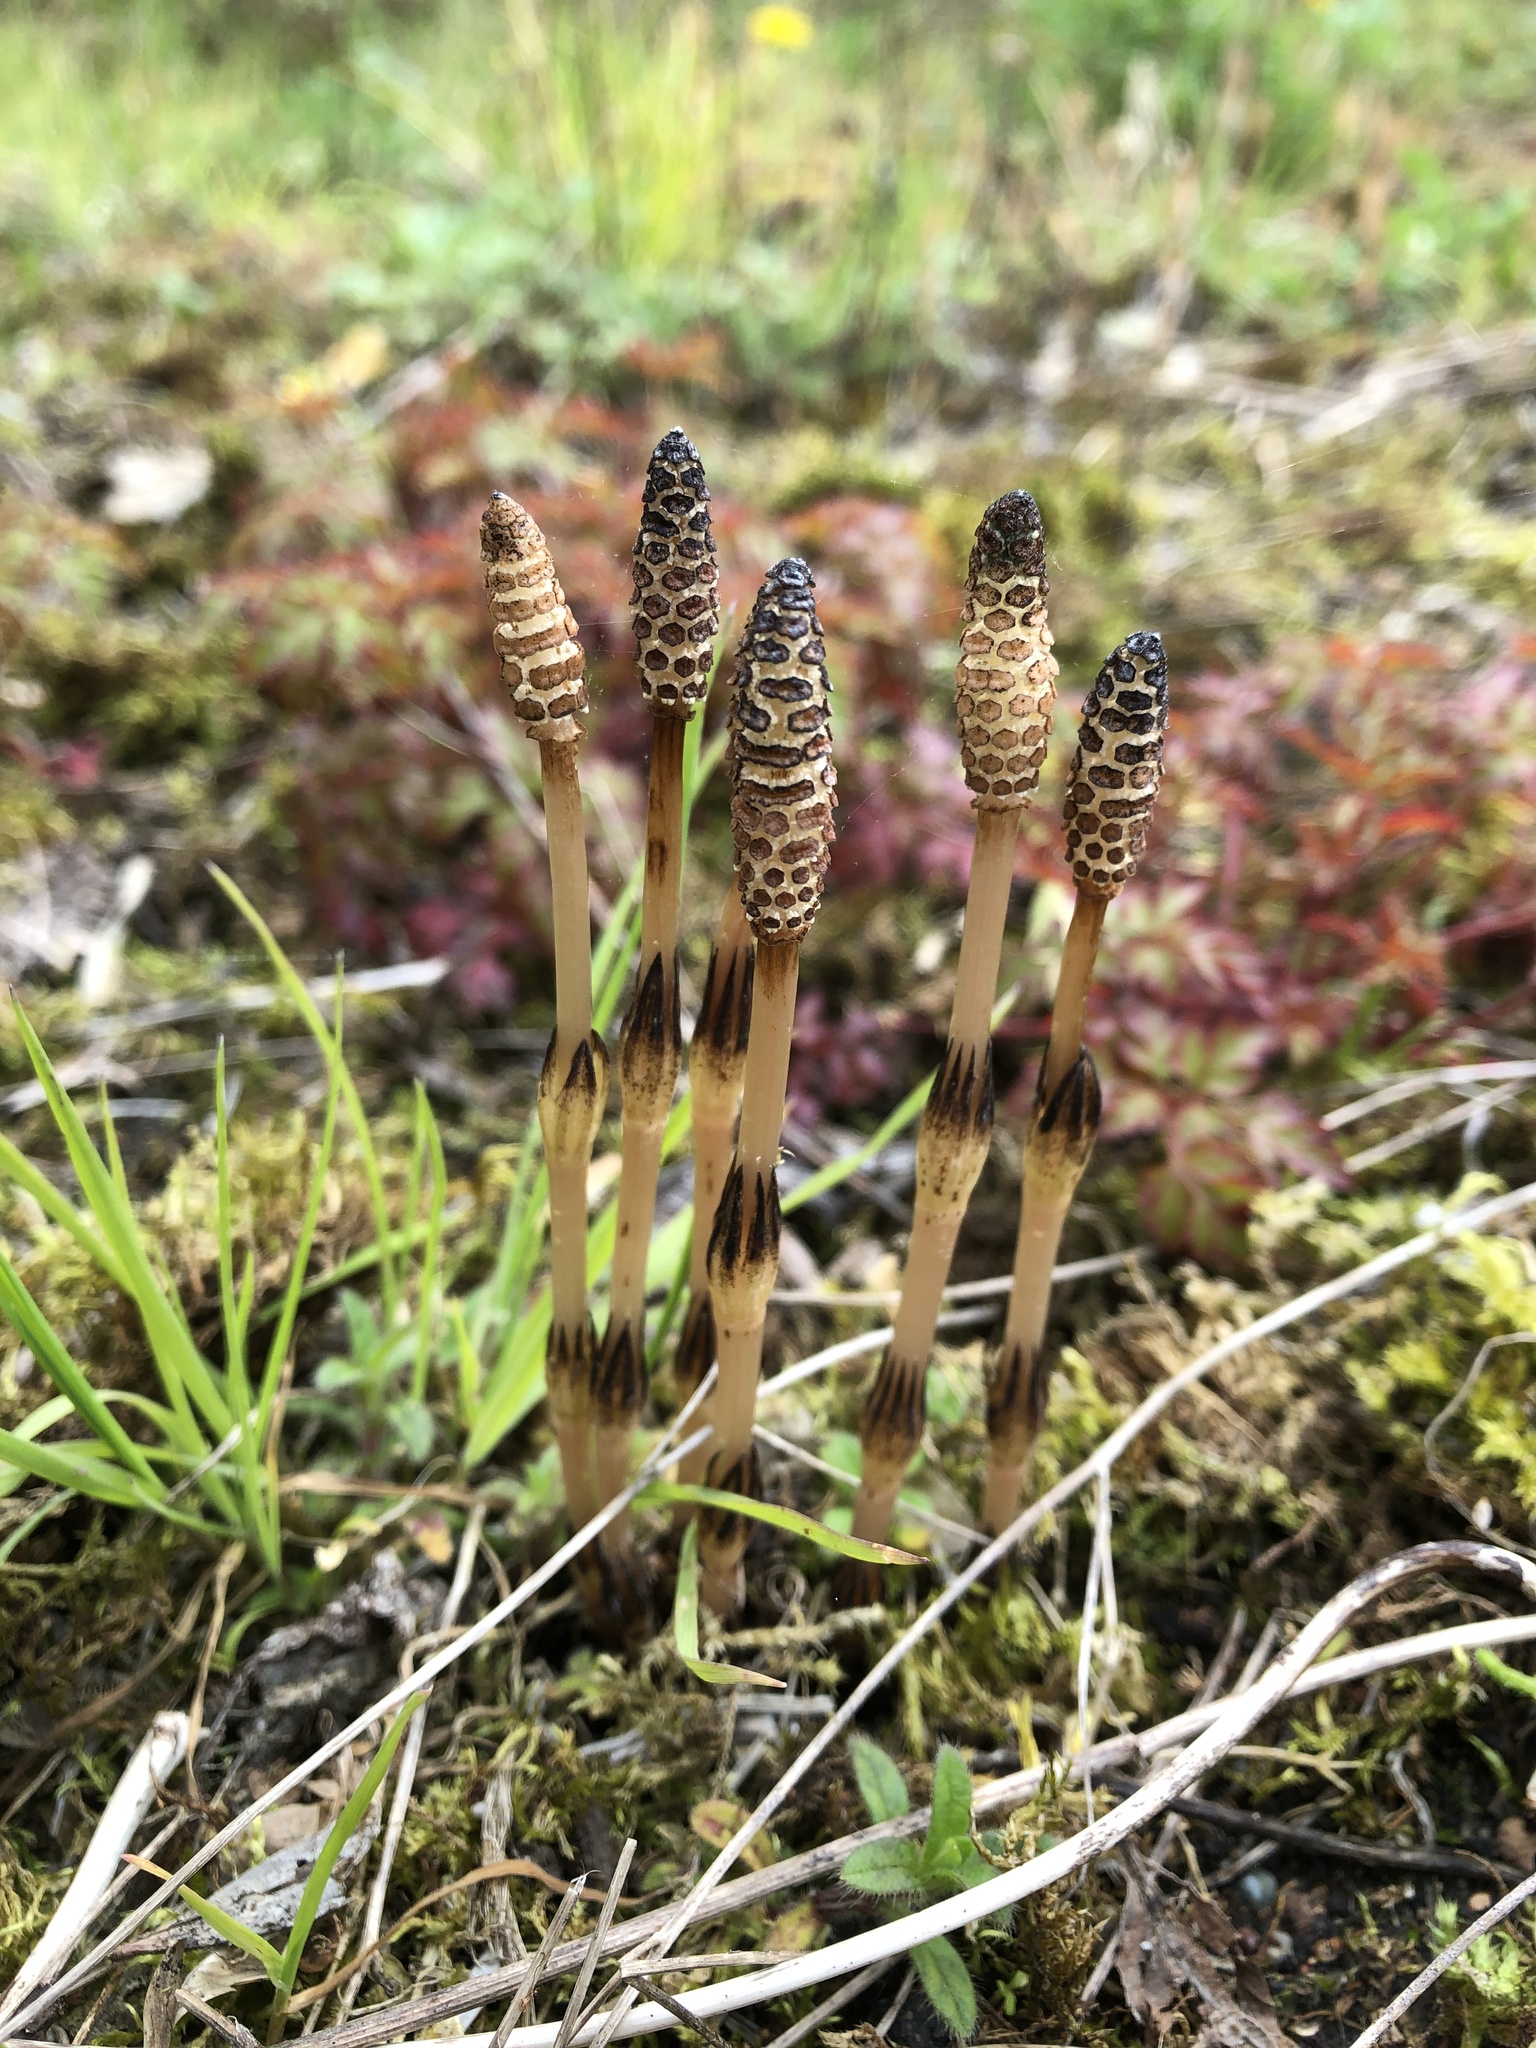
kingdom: Plantae
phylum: Tracheophyta
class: Polypodiopsida
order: Equisetales
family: Equisetaceae
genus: Equisetum
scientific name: Equisetum arvense
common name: Field horsetail
